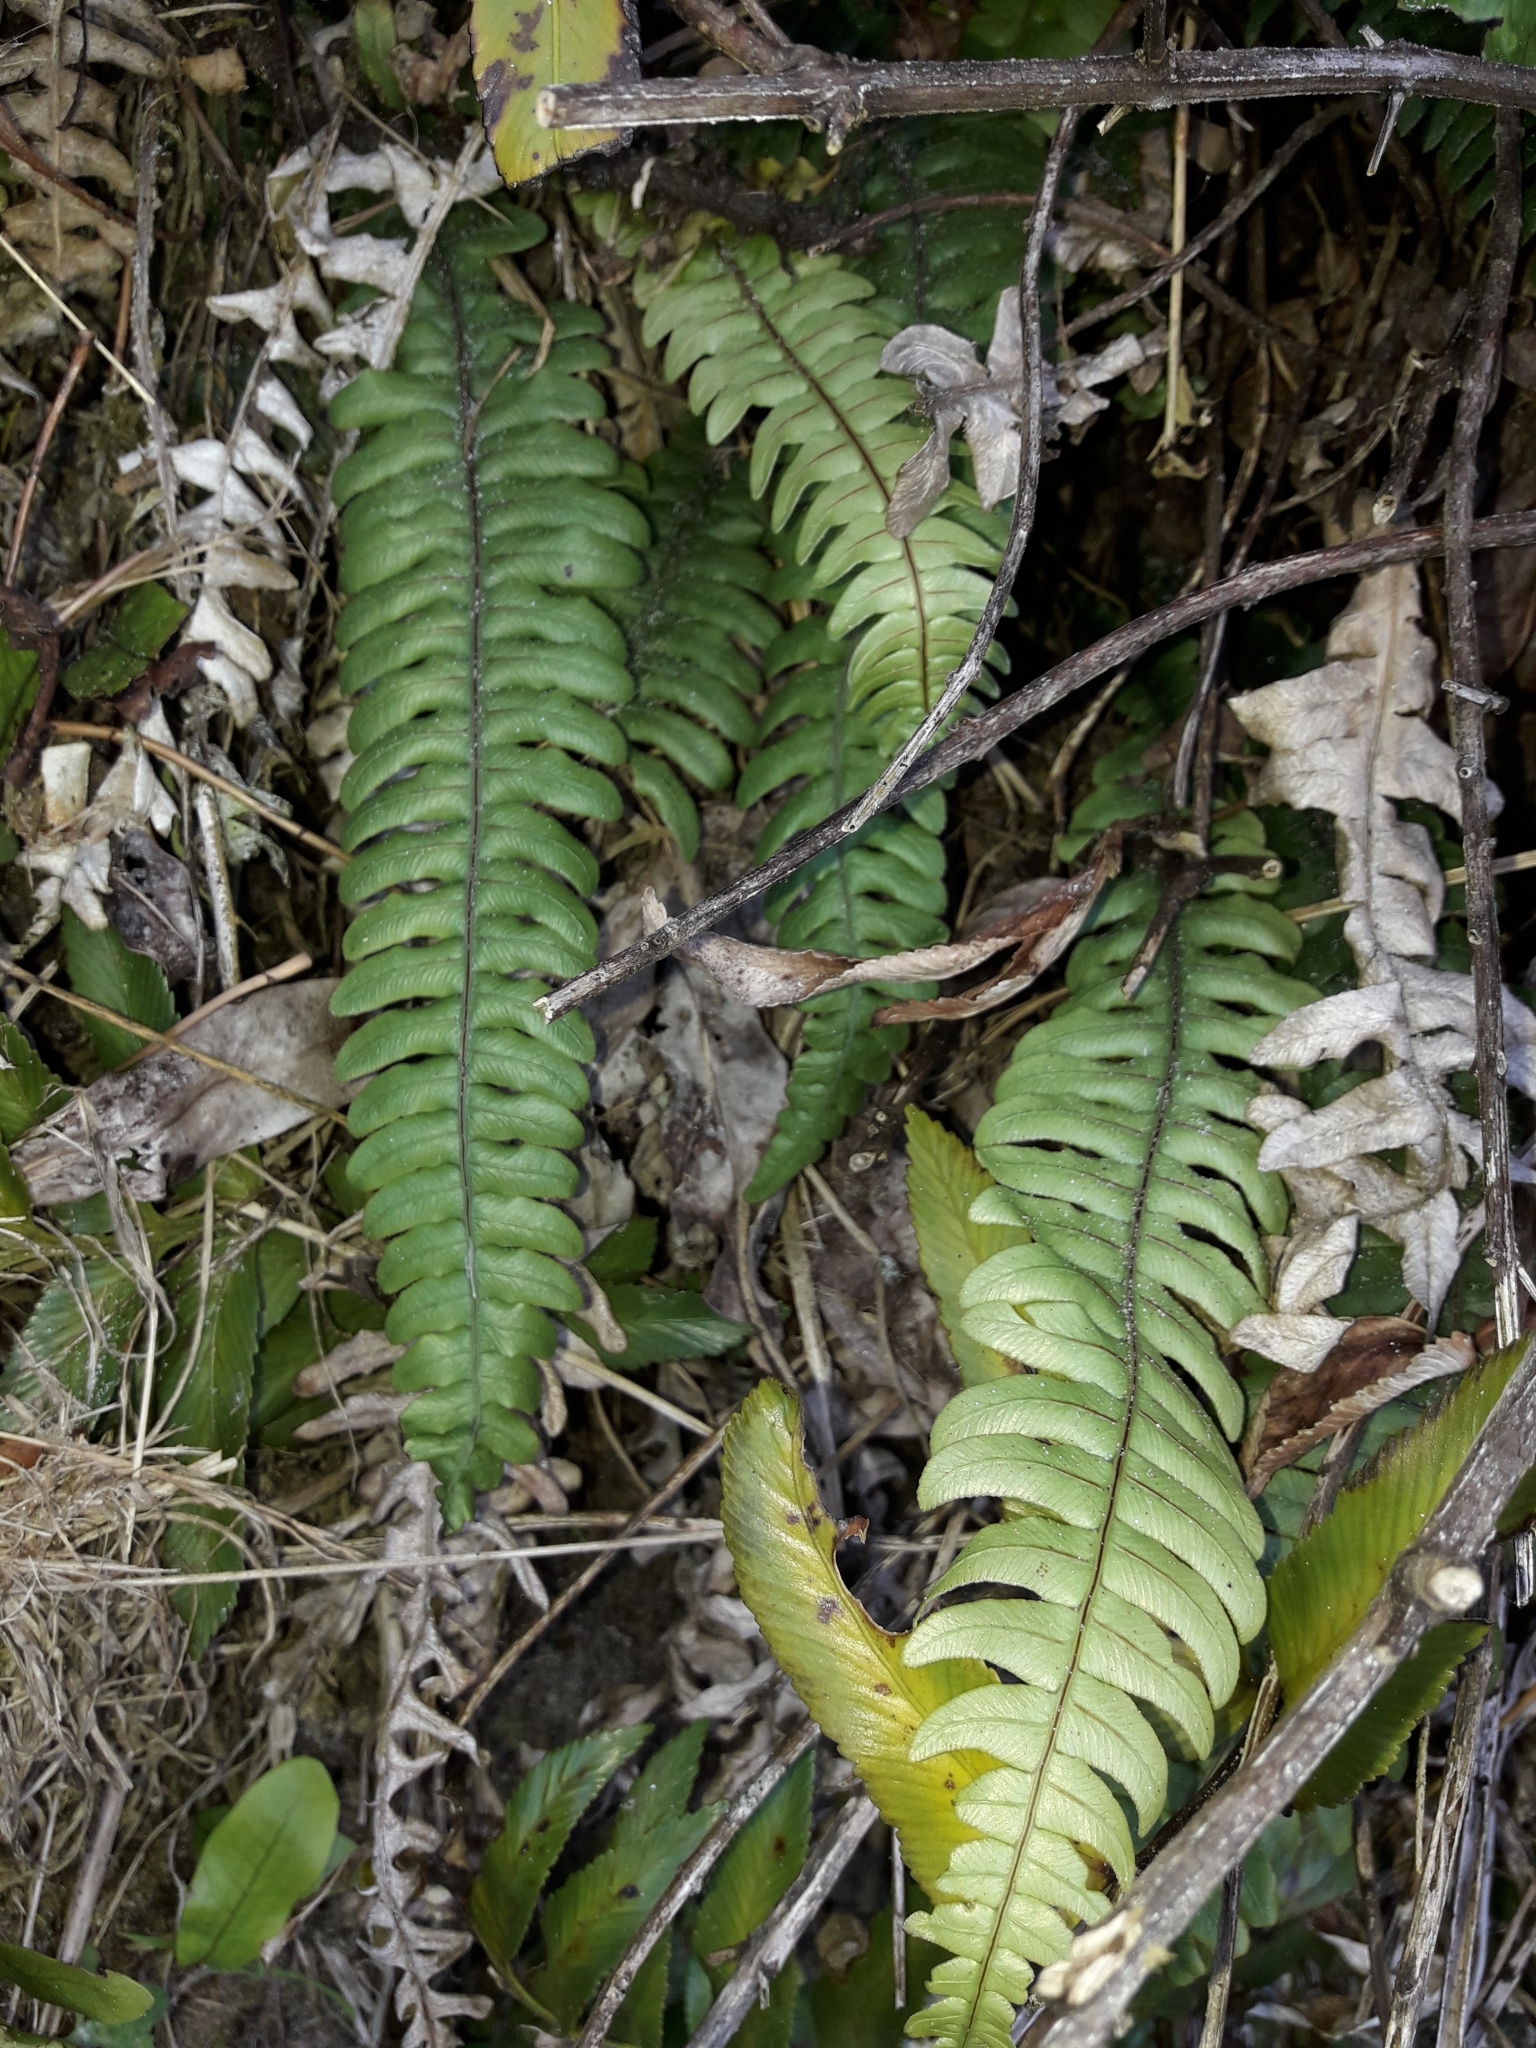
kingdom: Plantae
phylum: Tracheophyta
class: Polypodiopsida
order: Polypodiales
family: Blechnaceae
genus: Austroblechnum
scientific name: Austroblechnum lanceolatum
